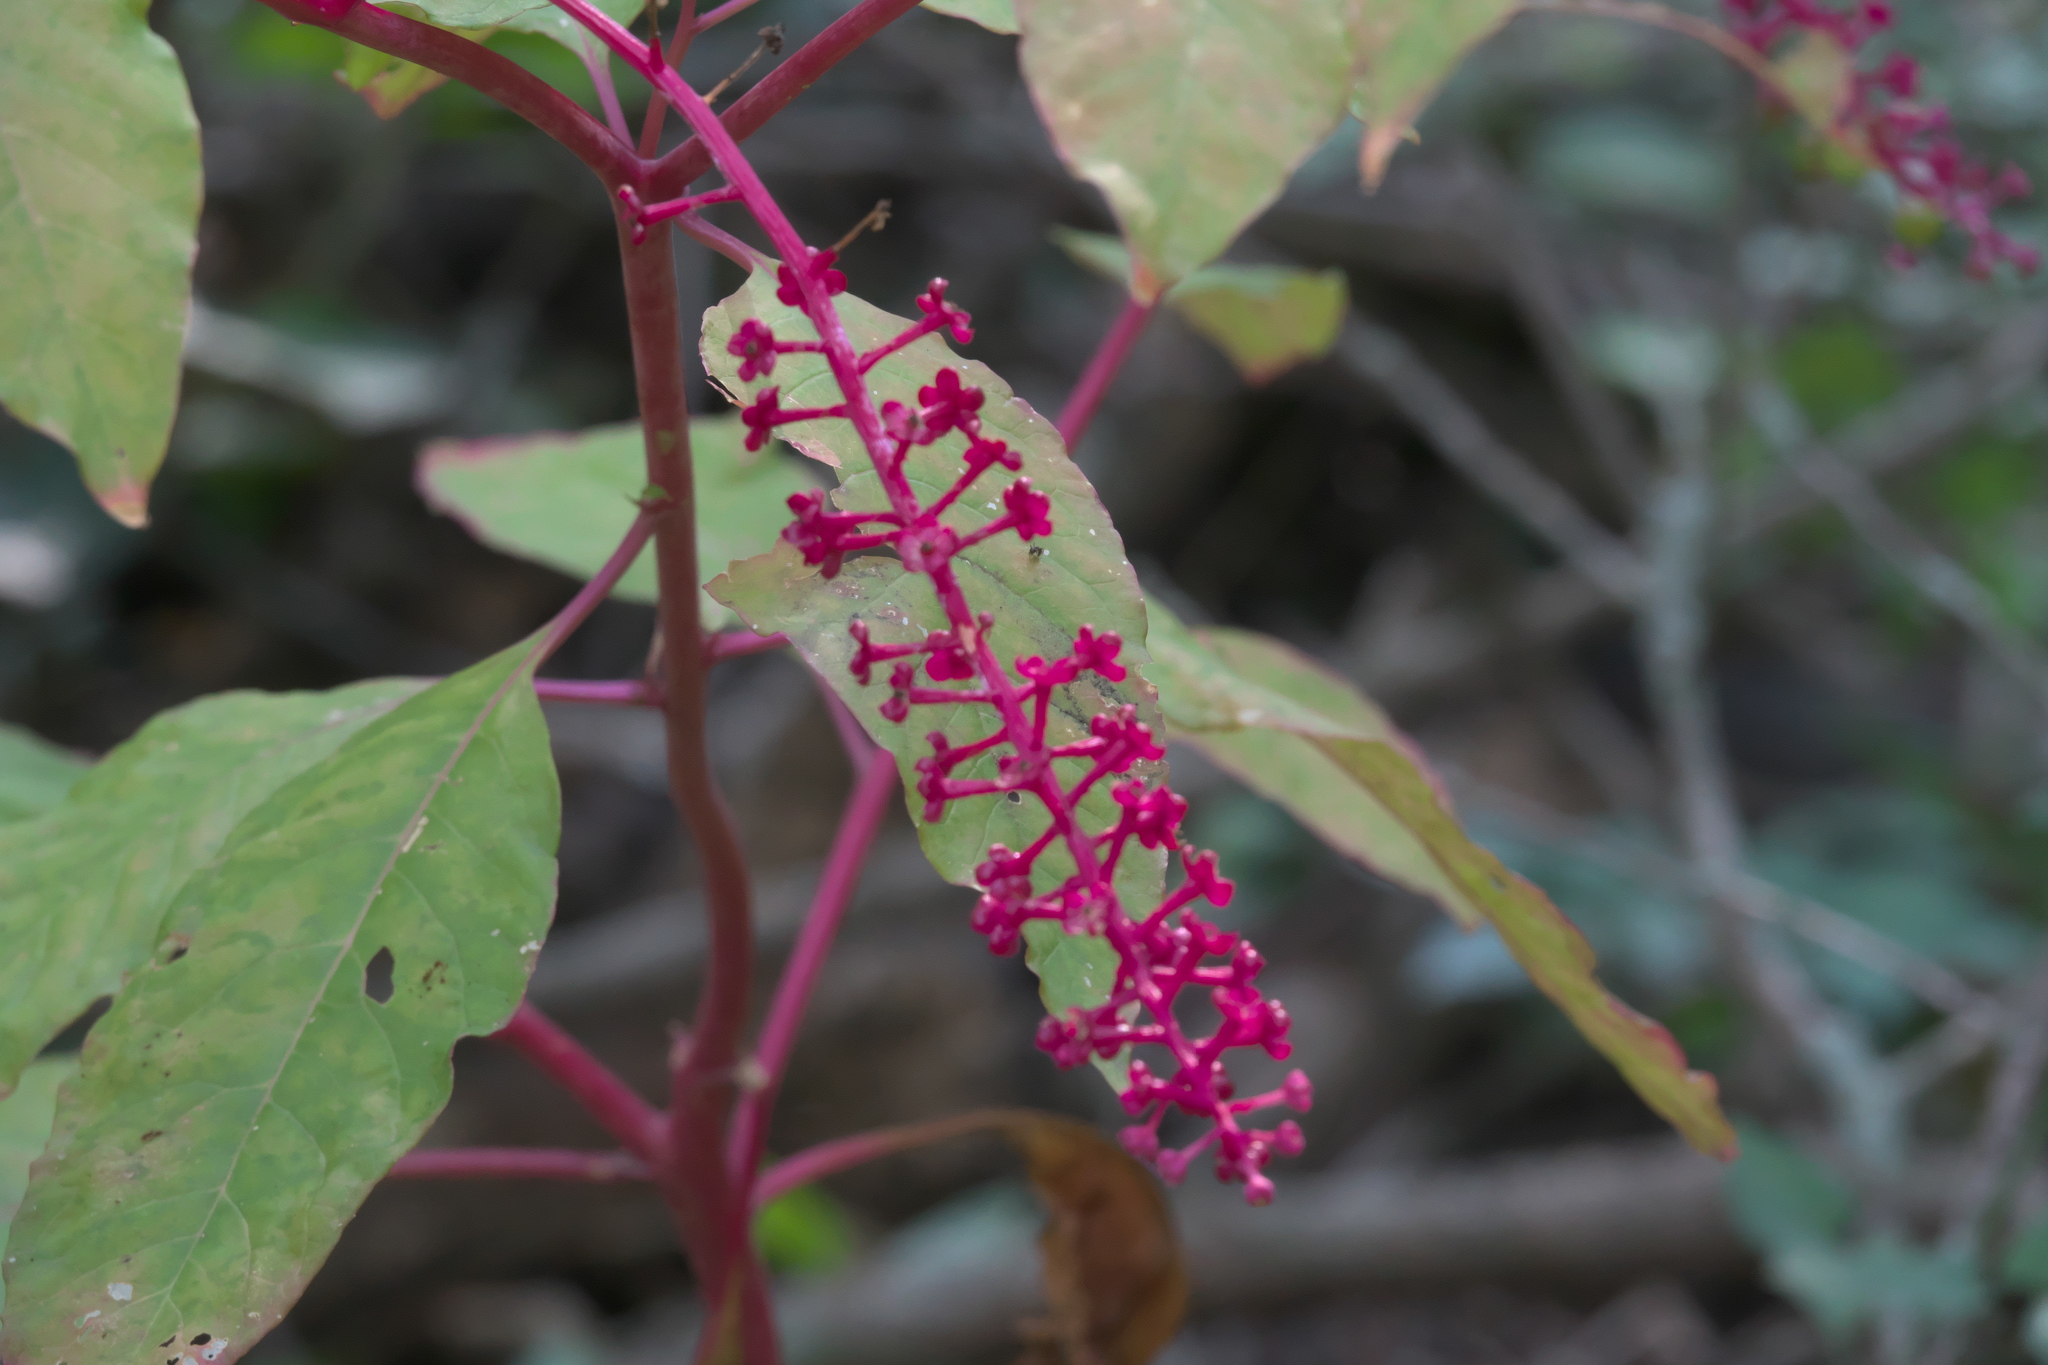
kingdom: Plantae
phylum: Tracheophyta
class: Magnoliopsida
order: Caryophyllales
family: Phytolaccaceae
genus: Phytolacca
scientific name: Phytolacca americana
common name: American pokeweed
